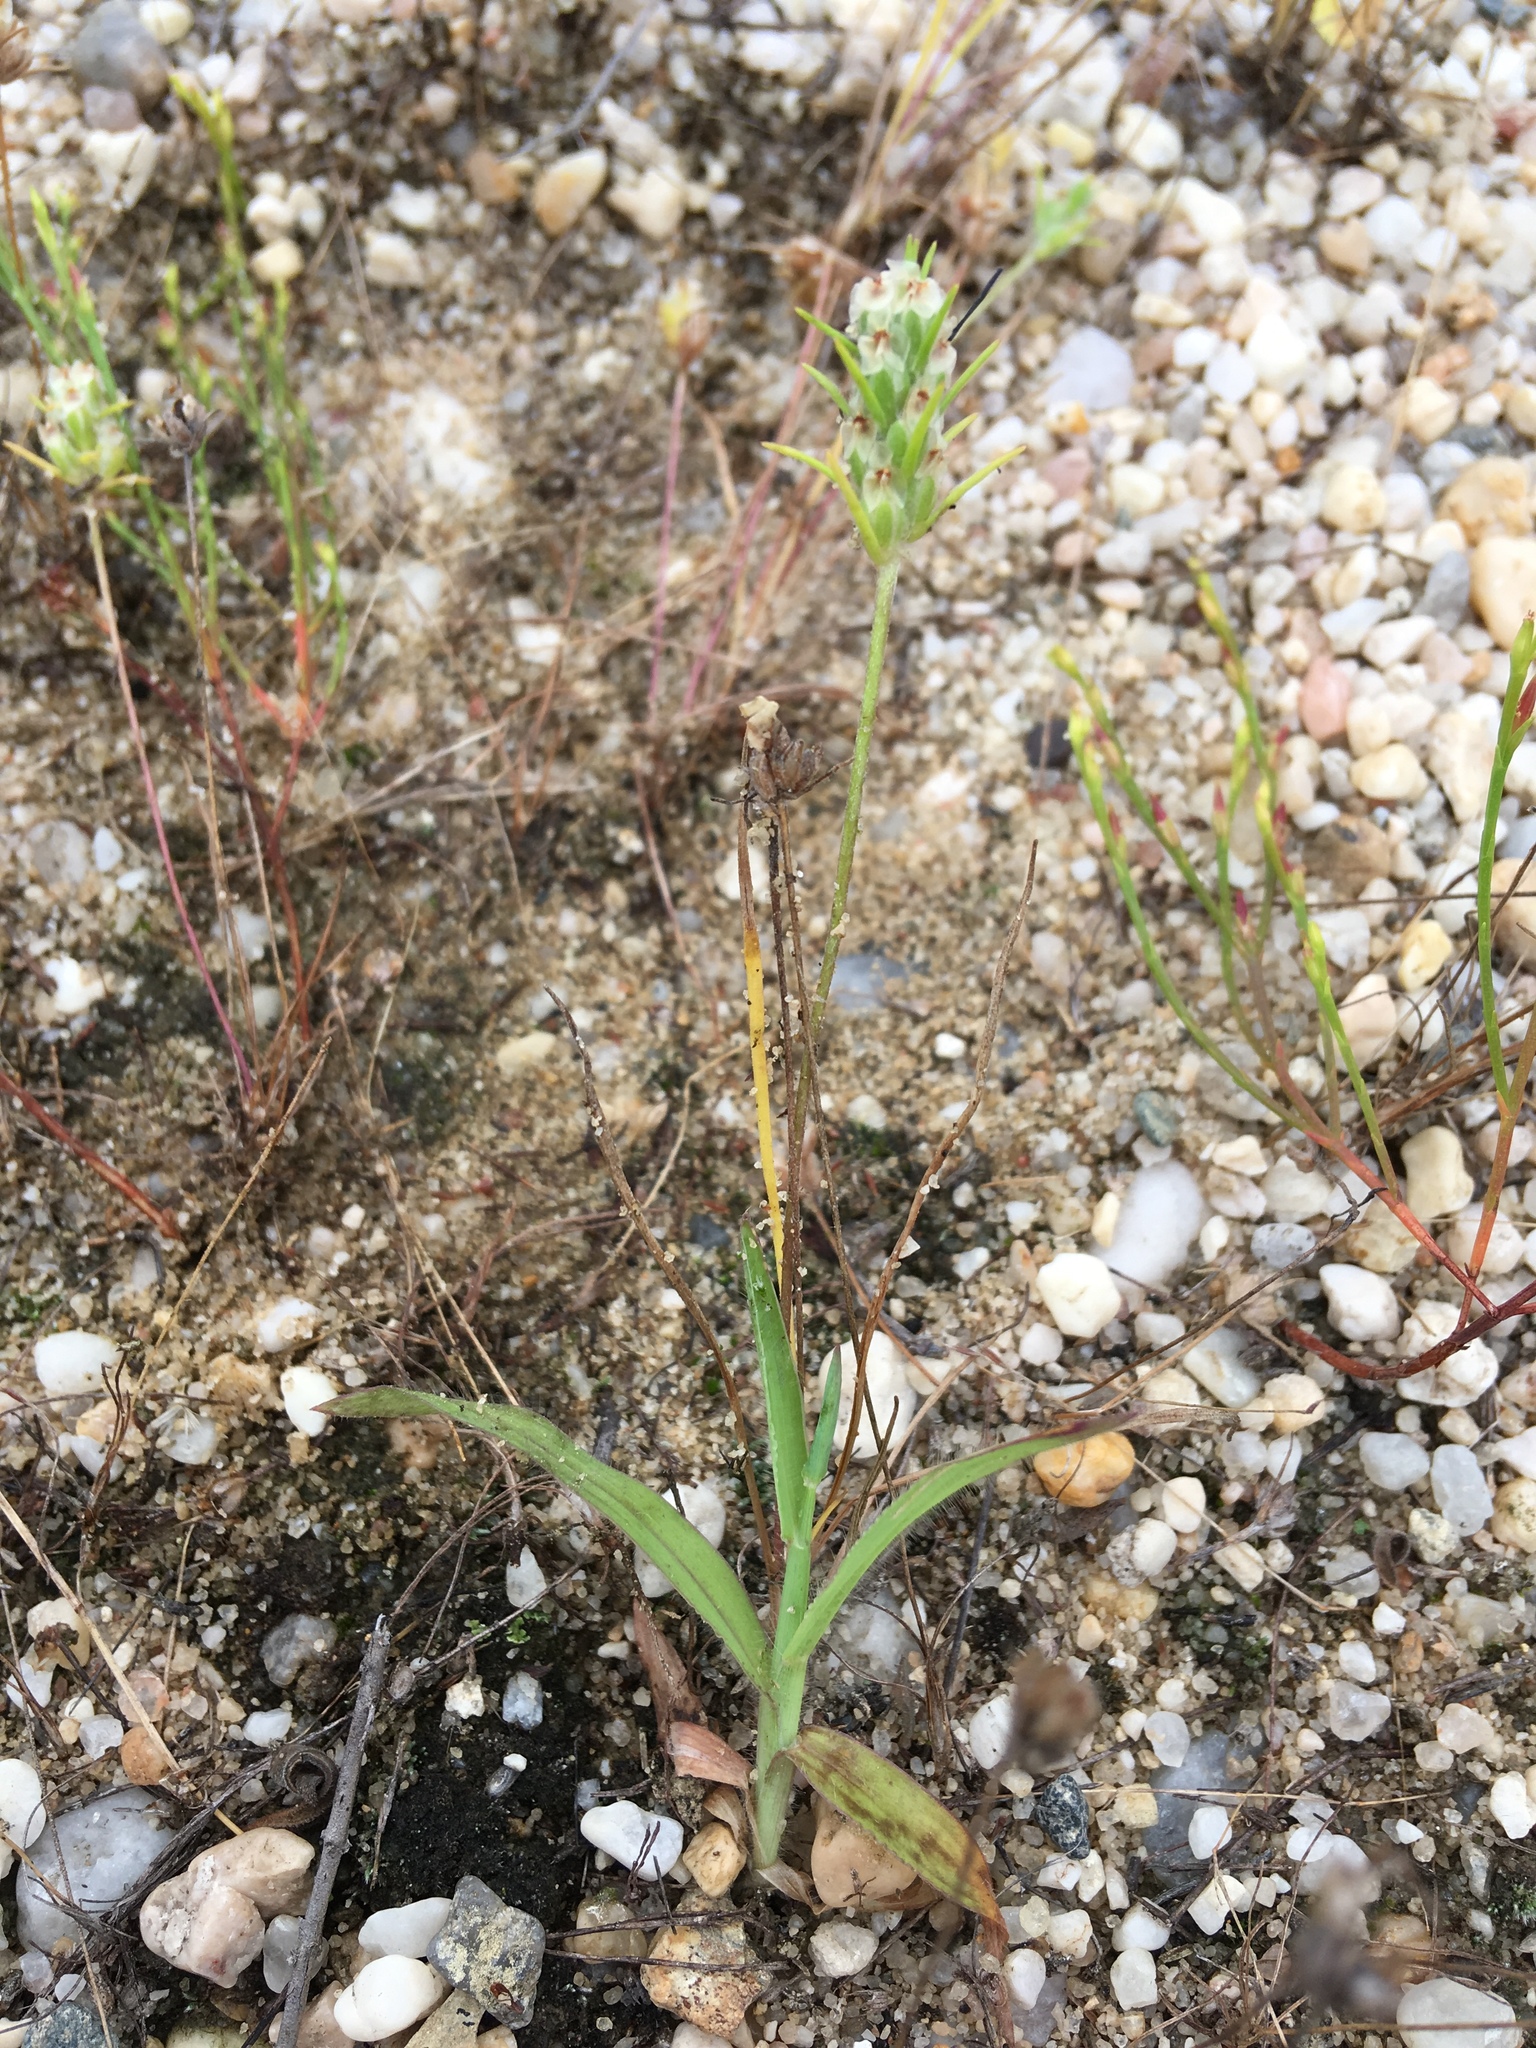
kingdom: Plantae
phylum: Tracheophyta
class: Magnoliopsida
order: Lamiales
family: Plantaginaceae
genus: Plantago
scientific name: Plantago aristata
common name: Bracted plantain
